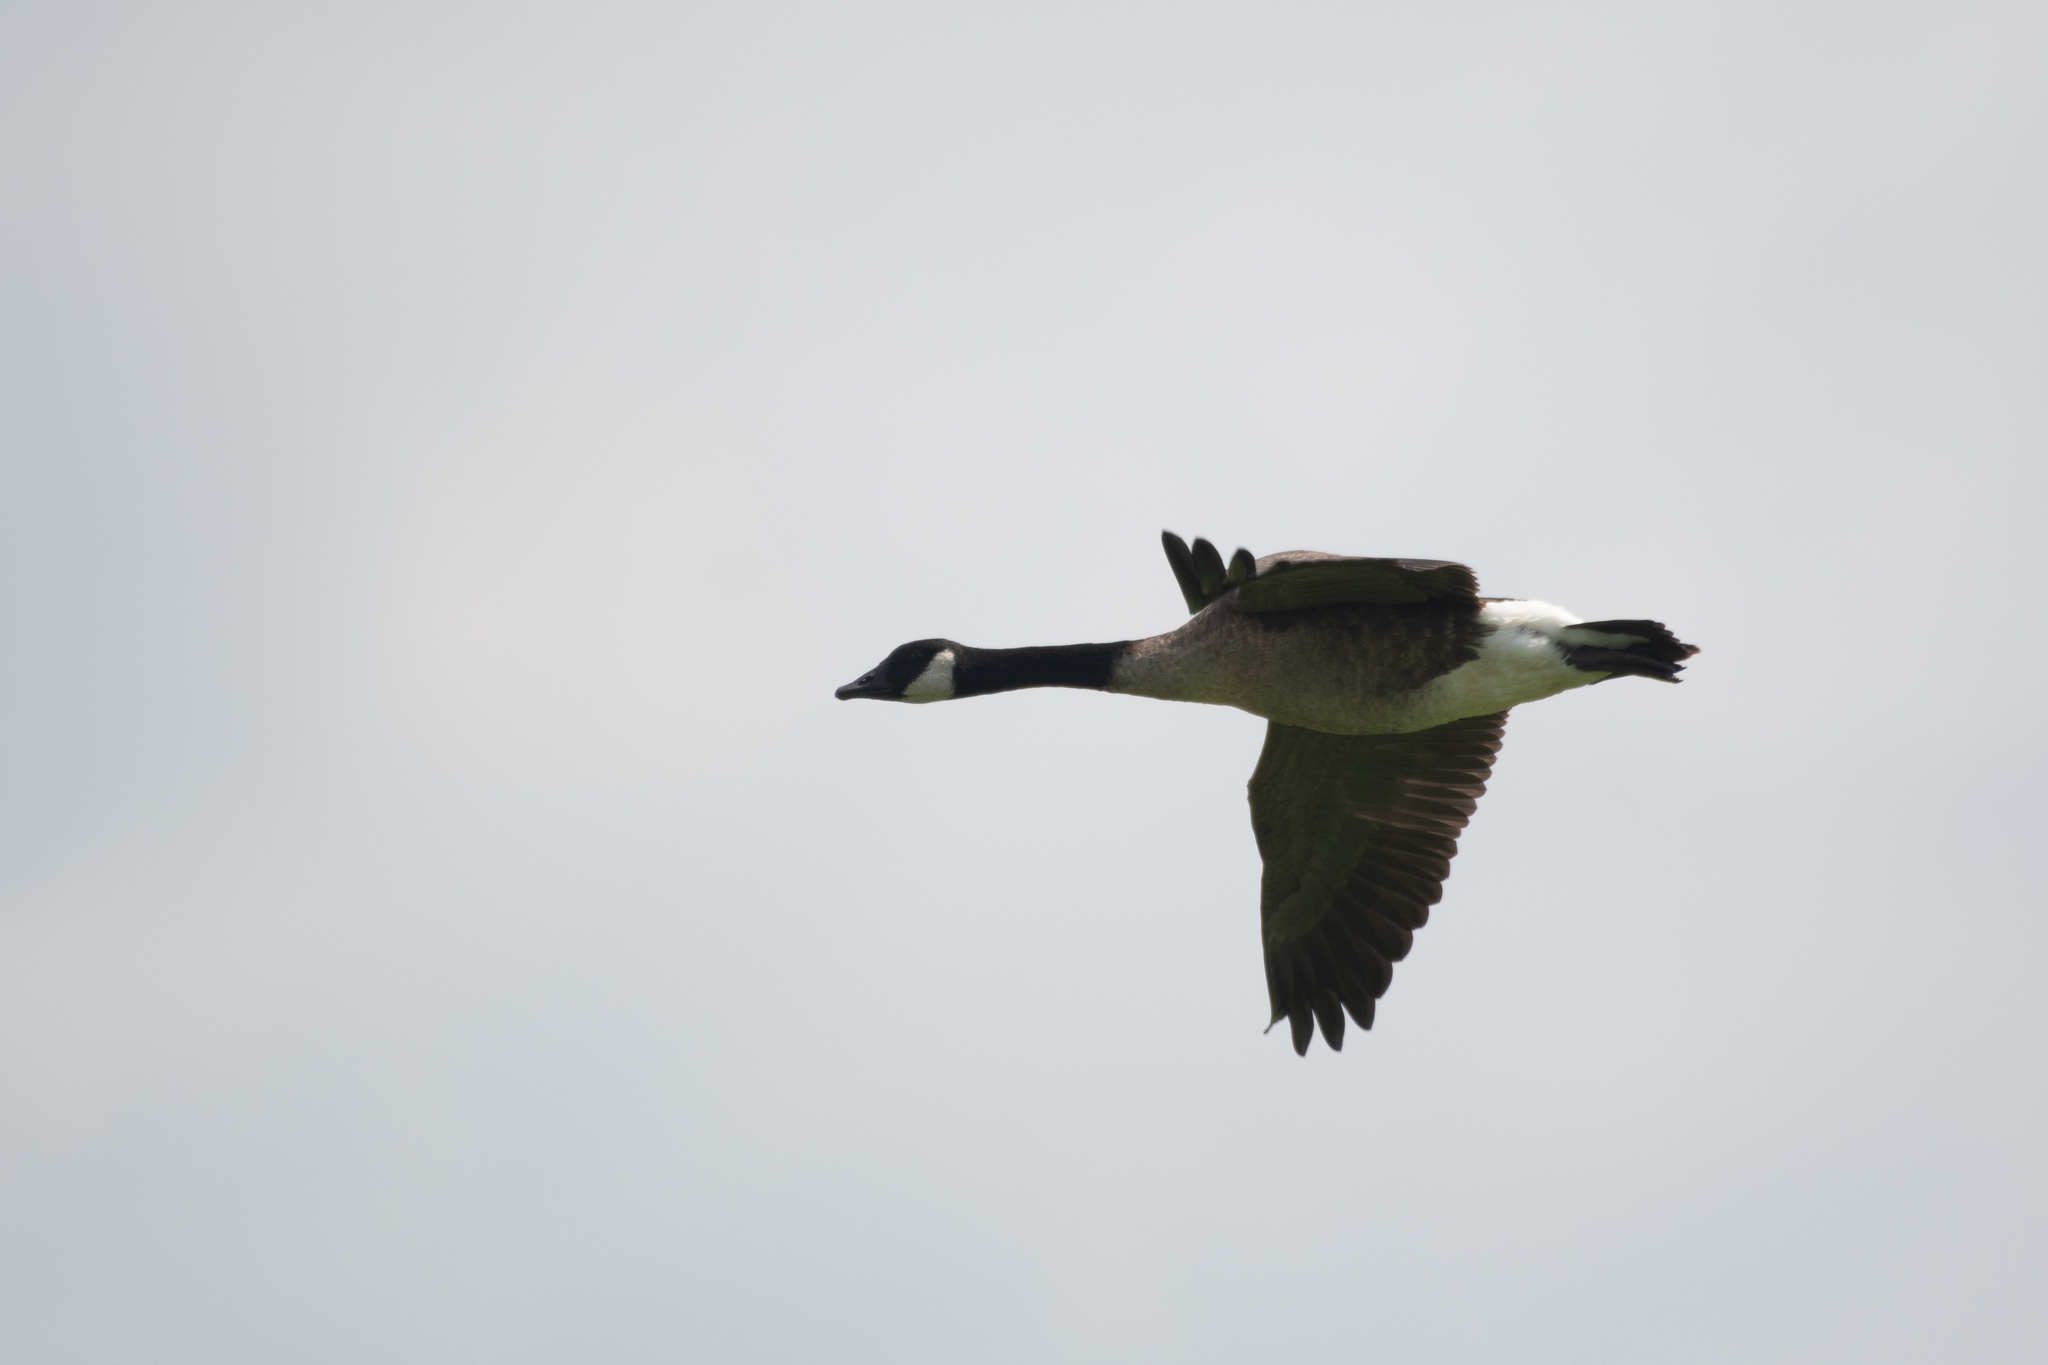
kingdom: Animalia
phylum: Chordata
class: Aves
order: Anseriformes
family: Anatidae
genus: Branta
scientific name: Branta canadensis
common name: Canada goose
